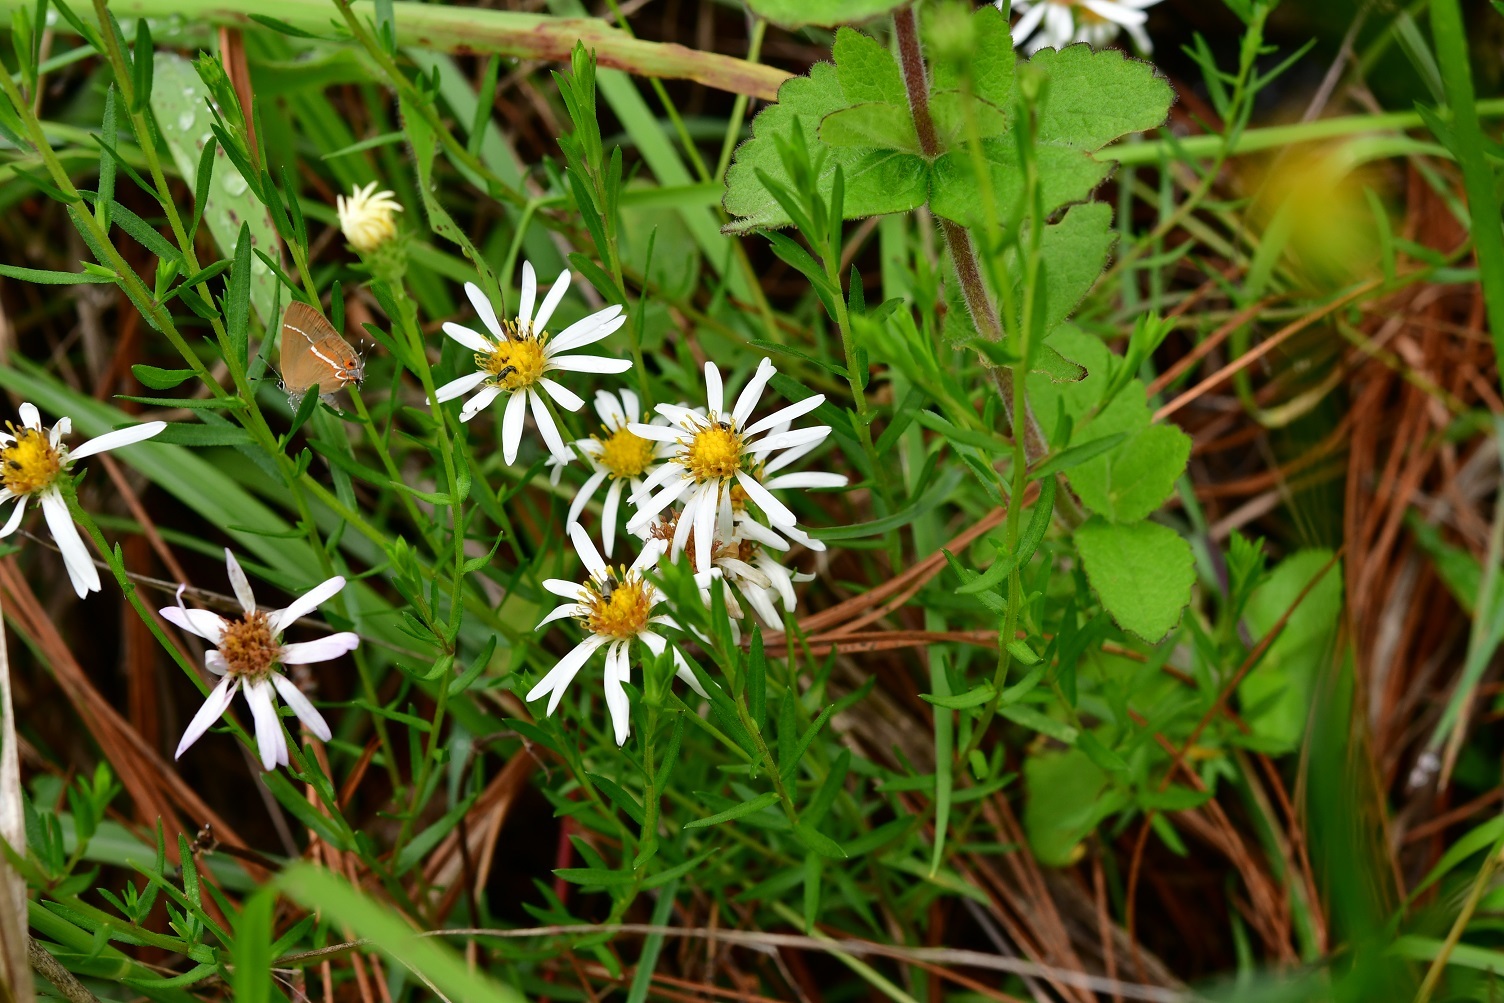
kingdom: Plantae
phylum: Tracheophyta
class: Magnoliopsida
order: Asterales
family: Asteraceae
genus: Symphyotrichum
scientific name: Symphyotrichum bullatum
